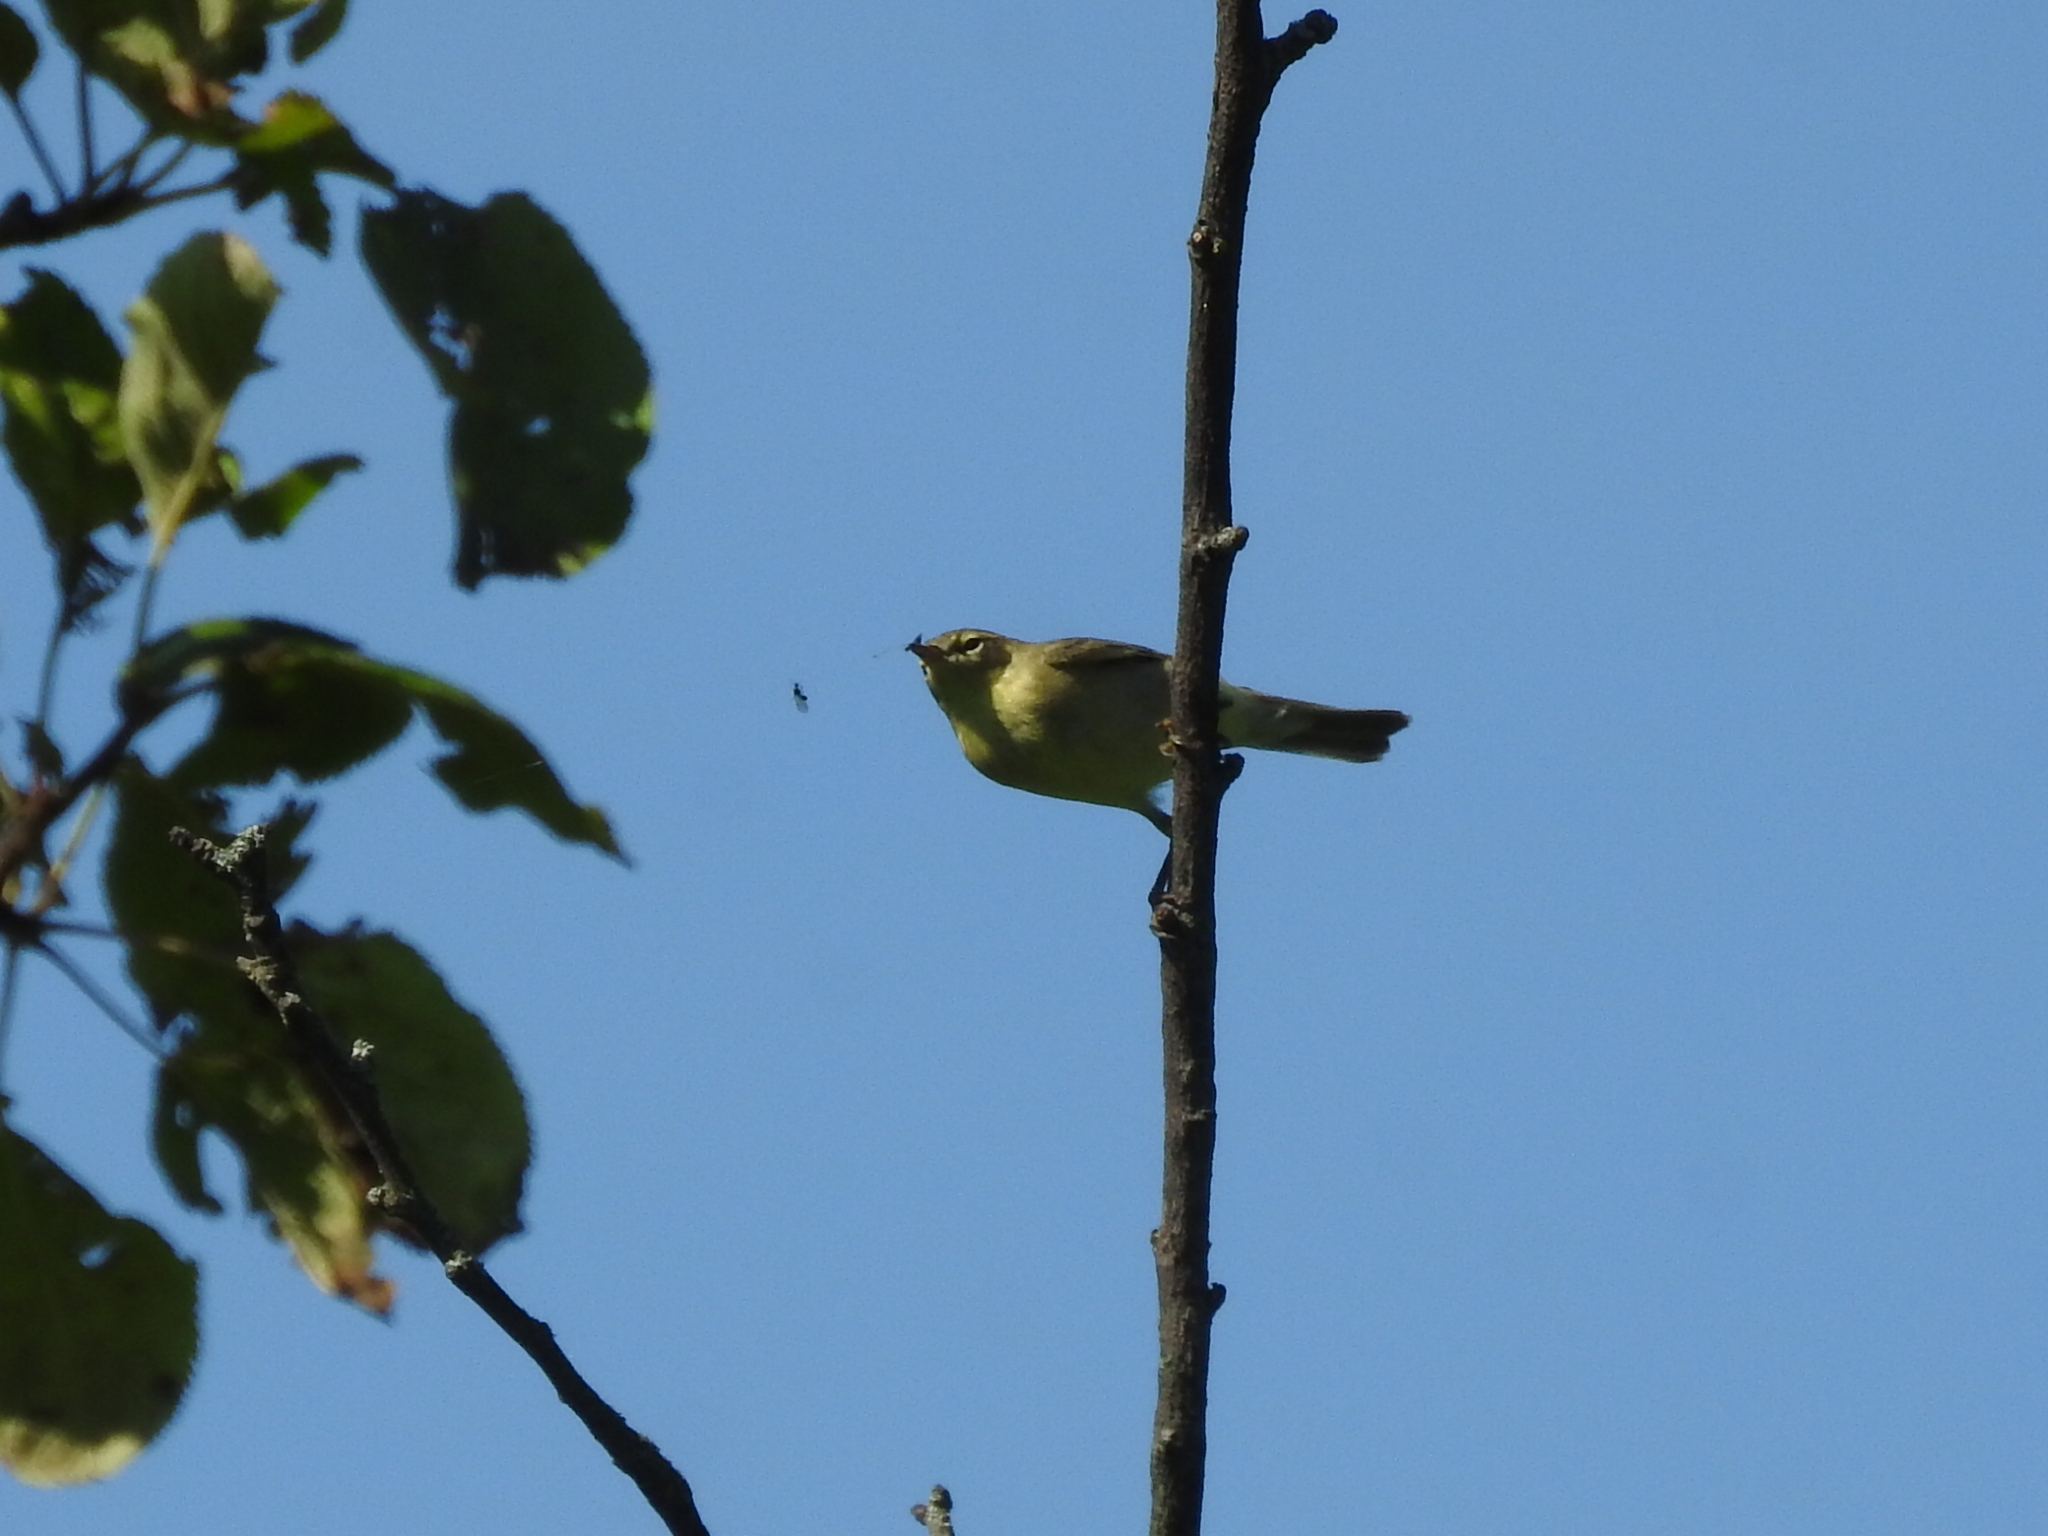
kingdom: Animalia
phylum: Chordata
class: Aves
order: Passeriformes
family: Phylloscopidae
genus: Phylloscopus
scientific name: Phylloscopus trochilus
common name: Willow warbler
